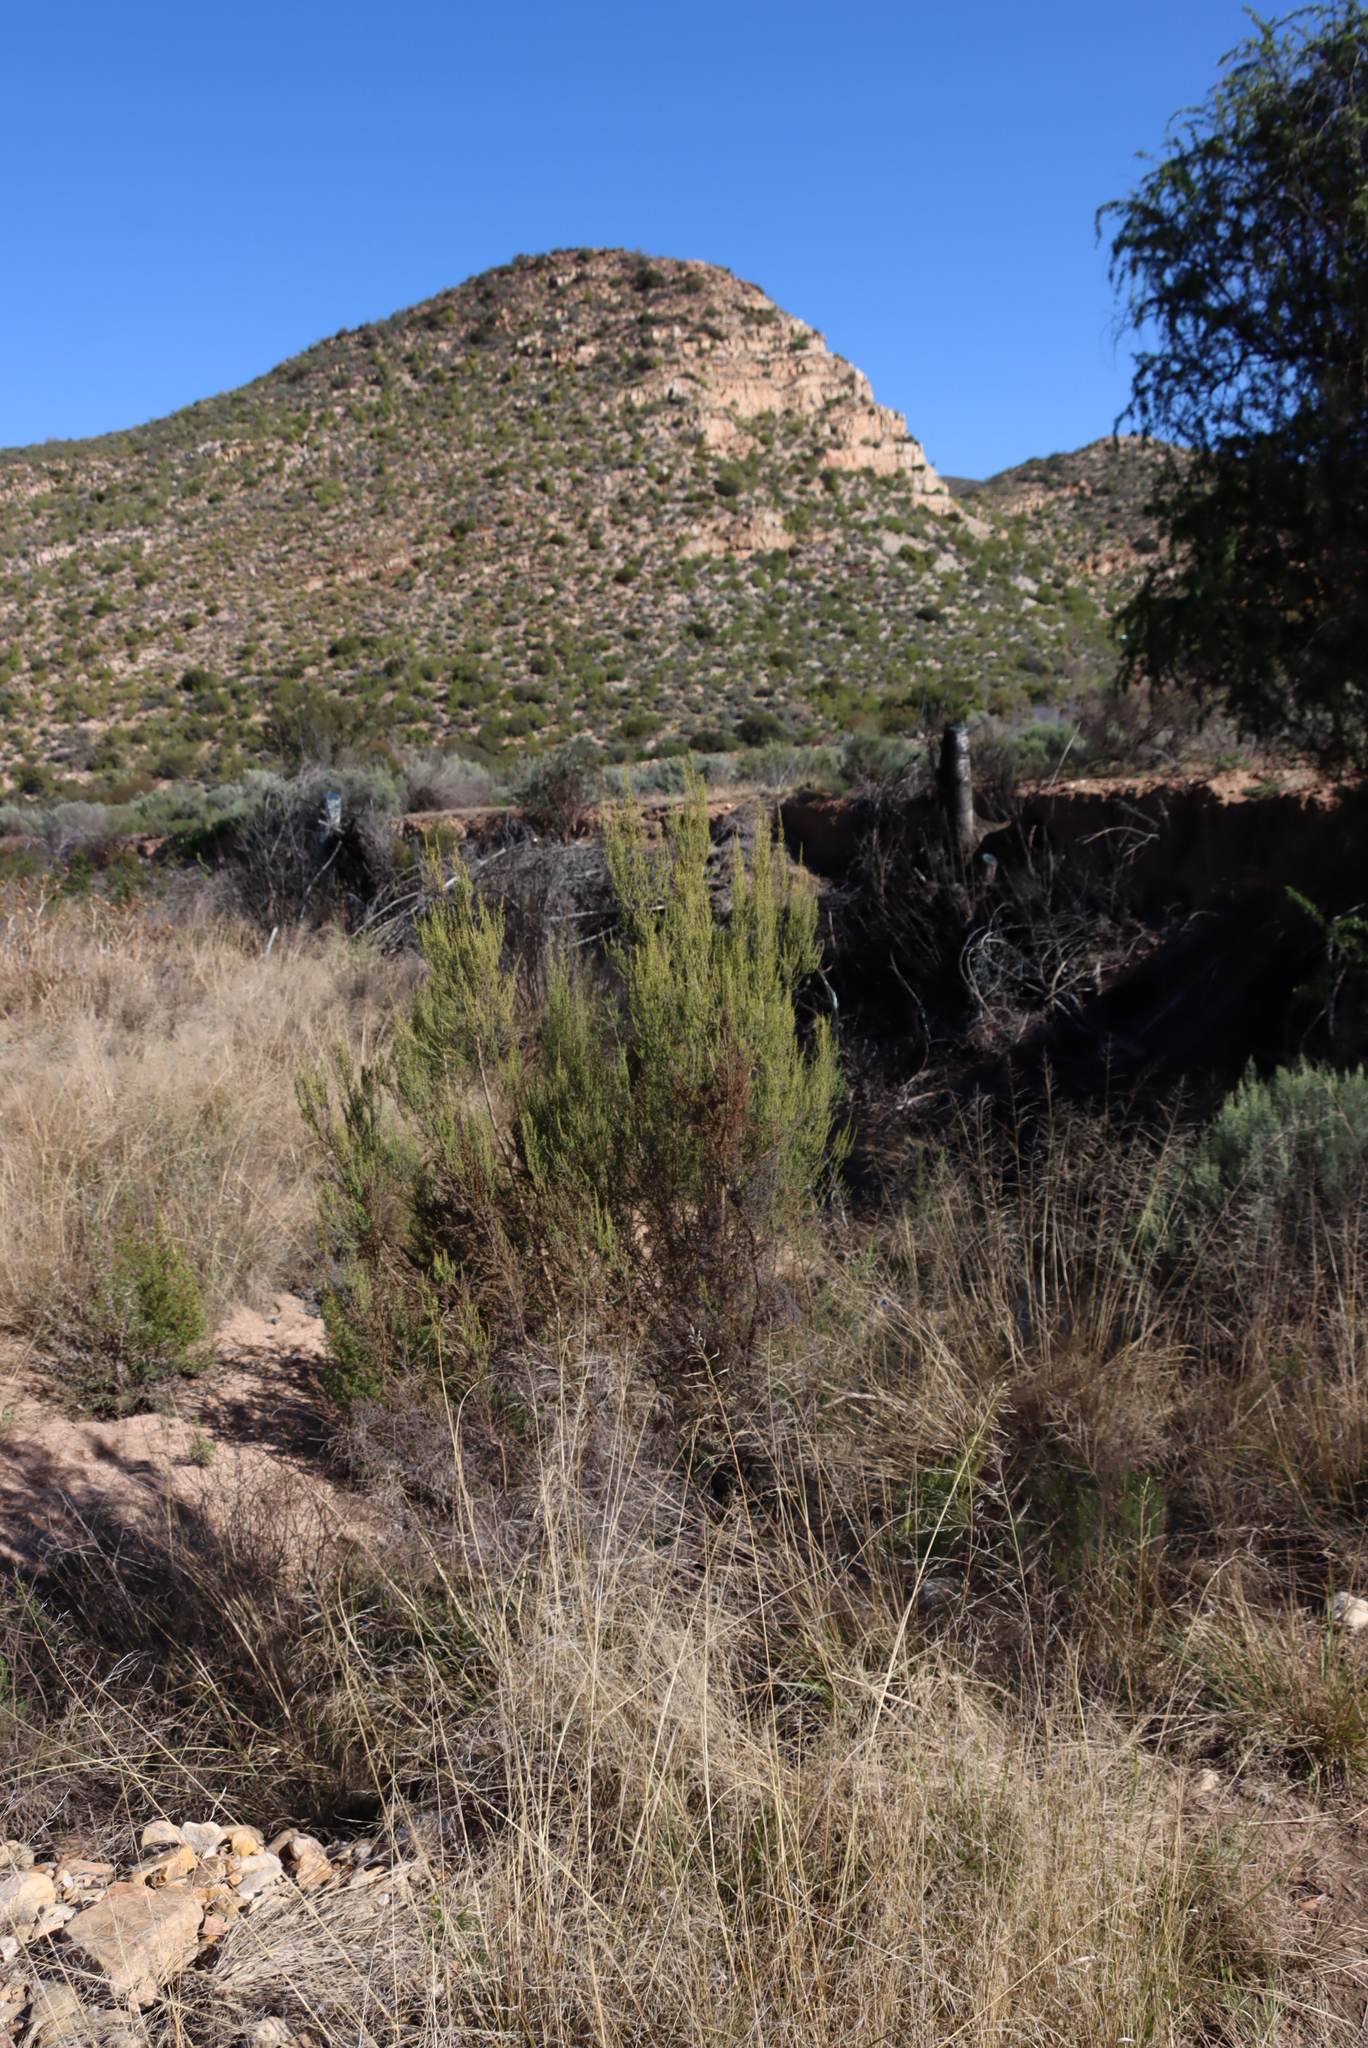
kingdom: Plantae
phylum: Tracheophyta
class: Magnoliopsida
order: Gentianales
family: Rubiaceae
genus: Anthospermum
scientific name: Anthospermum spathulatum
